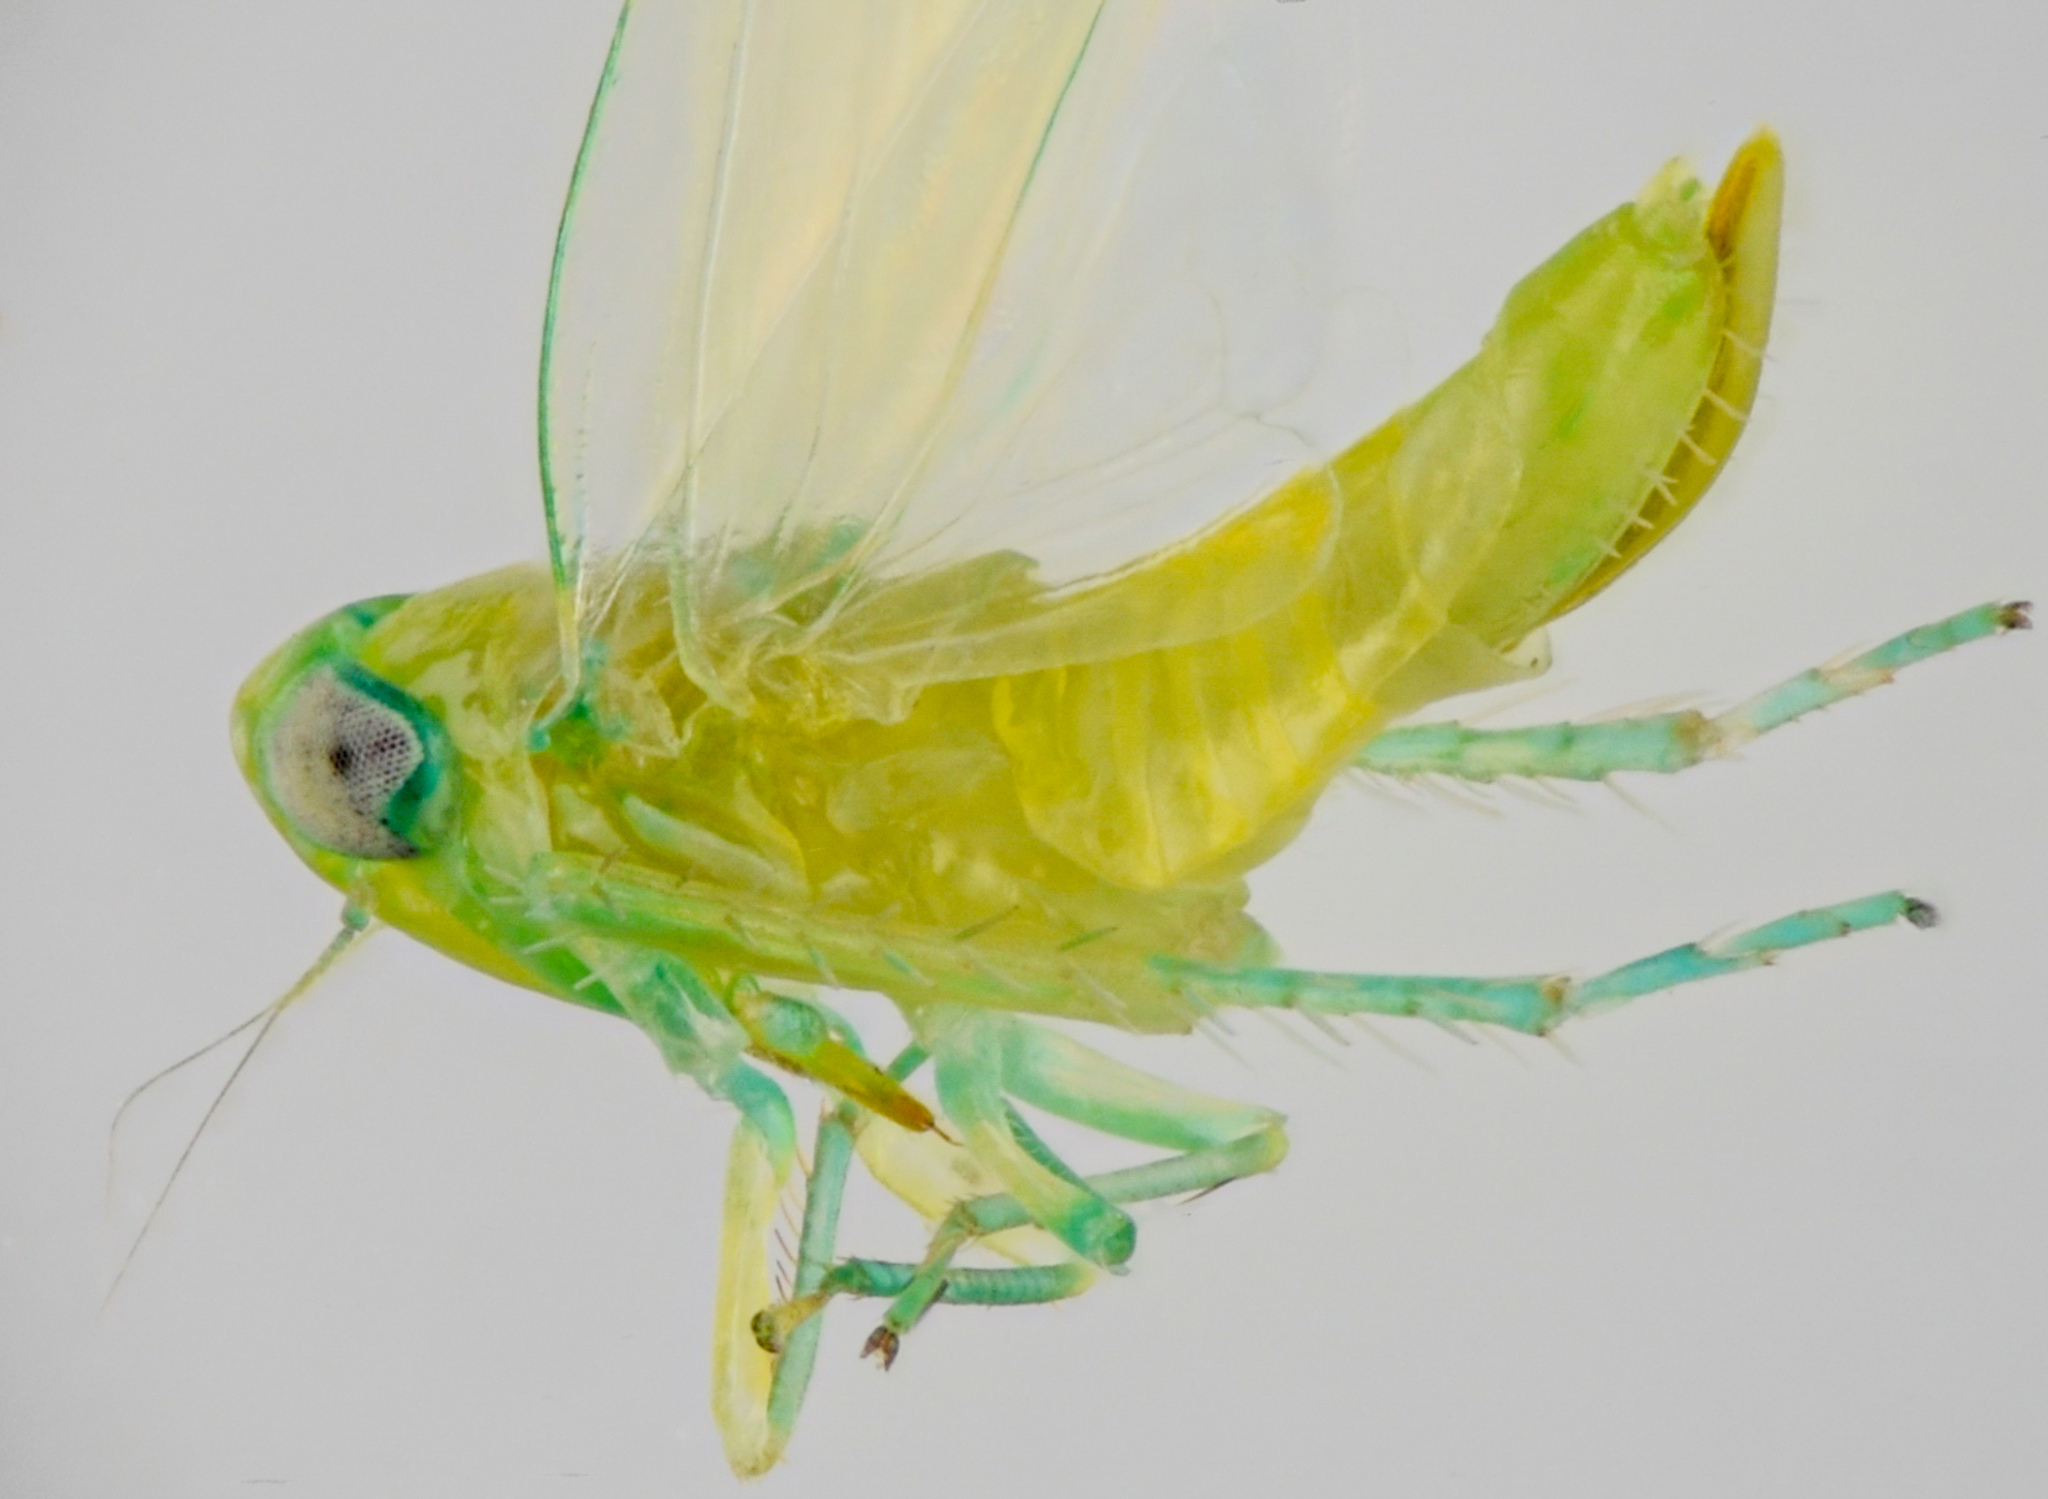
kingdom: Animalia
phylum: Arthropoda
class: Insecta
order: Hemiptera
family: Cicadellidae
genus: Empoasca
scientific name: Empoasca fabae
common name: Potato leafhopper
